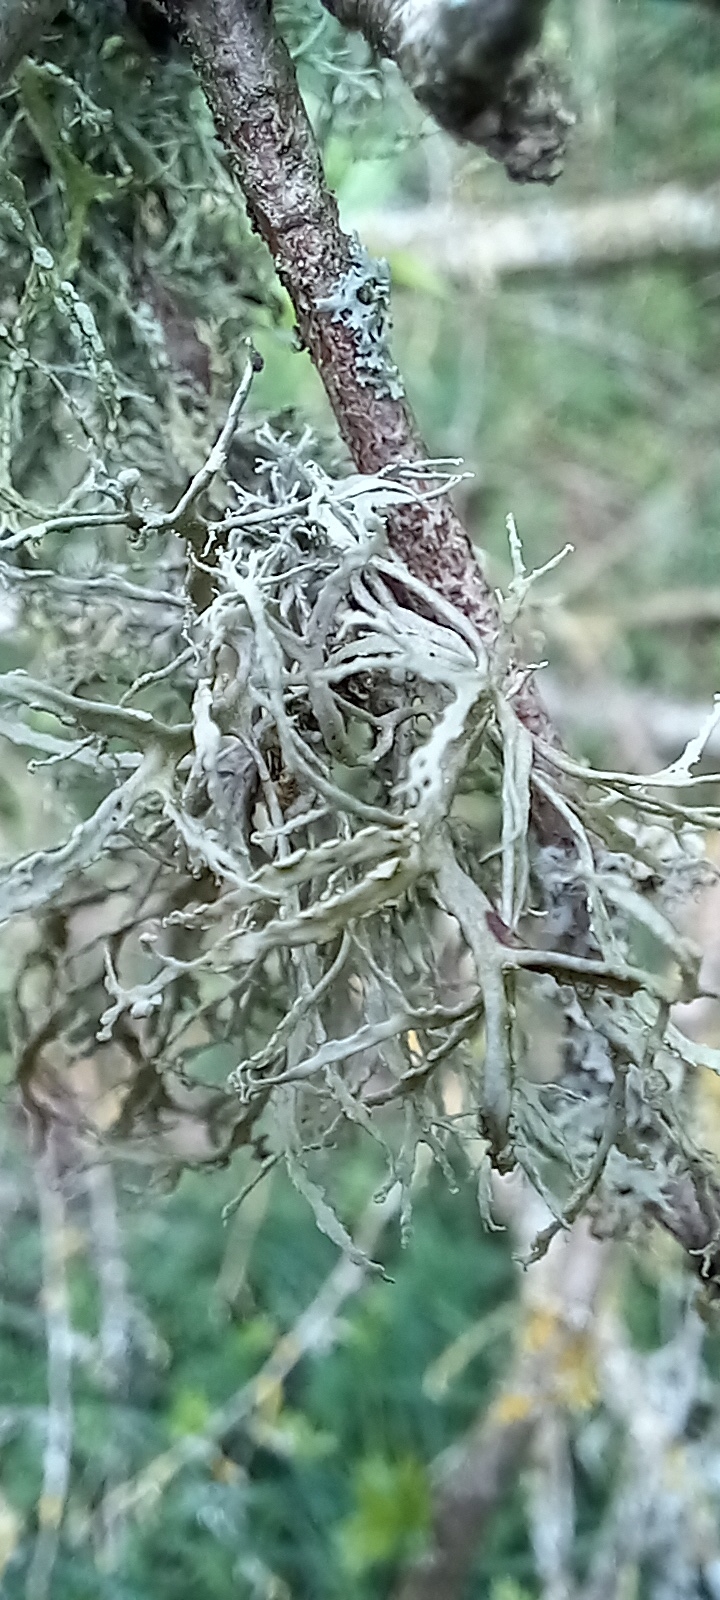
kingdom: Fungi
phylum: Ascomycota
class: Lecanoromycetes
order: Lecanorales
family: Ramalinaceae
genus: Ramalina
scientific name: Ramalina farinacea
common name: Farinose cartilage lichen
